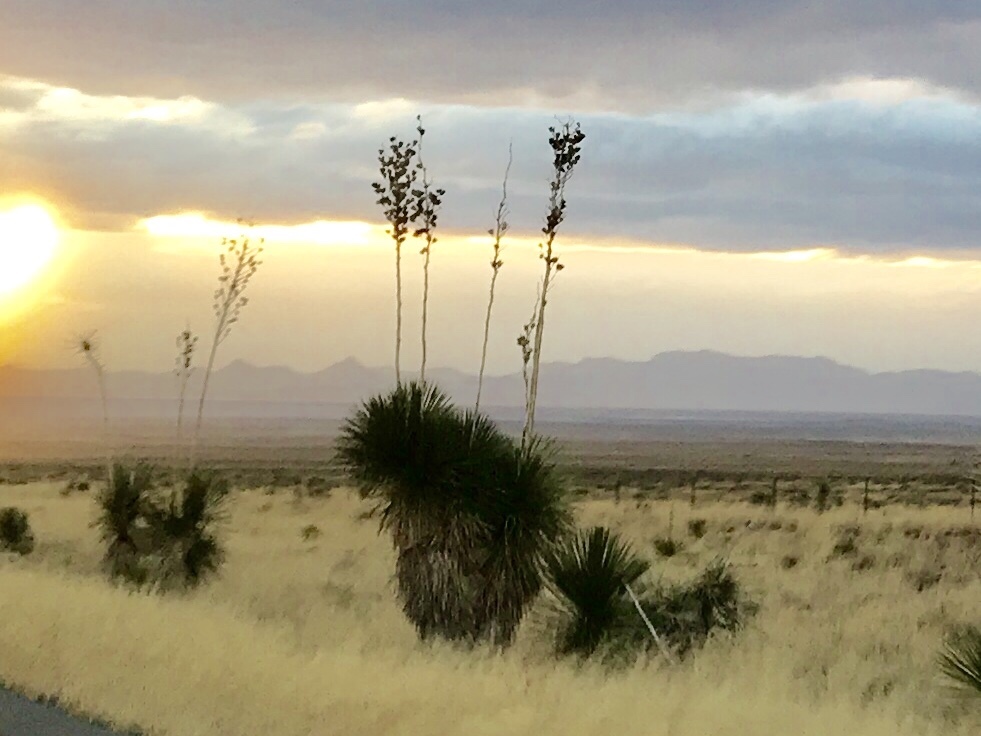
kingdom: Plantae
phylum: Tracheophyta
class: Liliopsida
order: Asparagales
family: Asparagaceae
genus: Yucca
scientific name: Yucca elata
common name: Palmella
